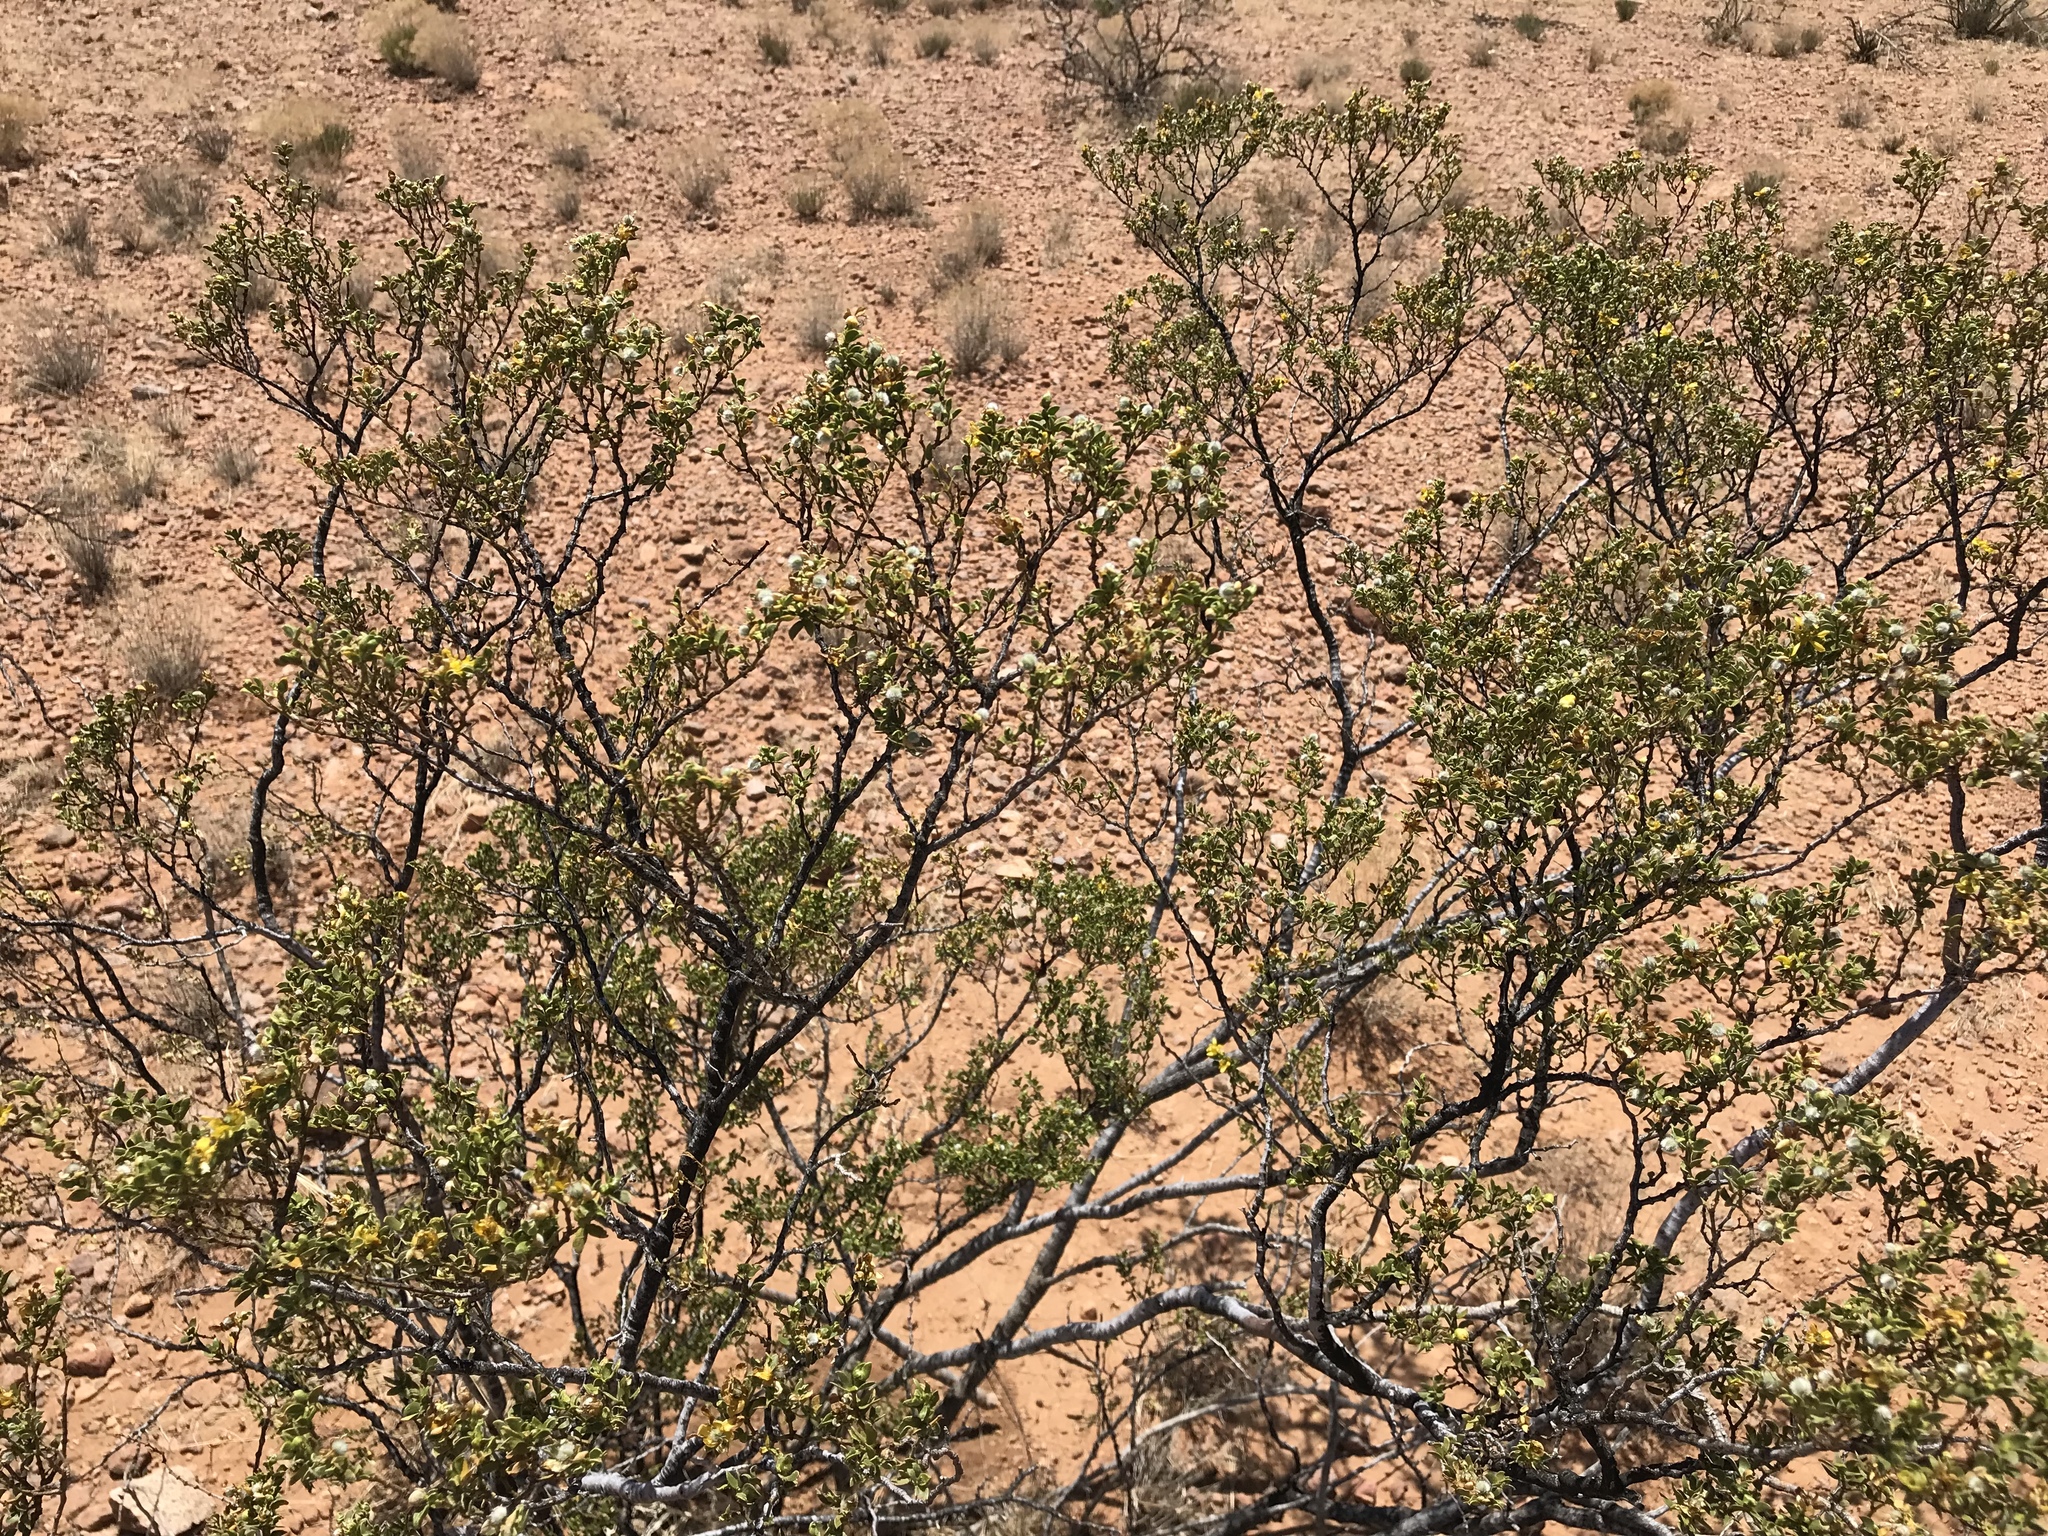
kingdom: Plantae
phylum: Tracheophyta
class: Magnoliopsida
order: Zygophyllales
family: Zygophyllaceae
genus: Larrea
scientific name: Larrea tridentata
